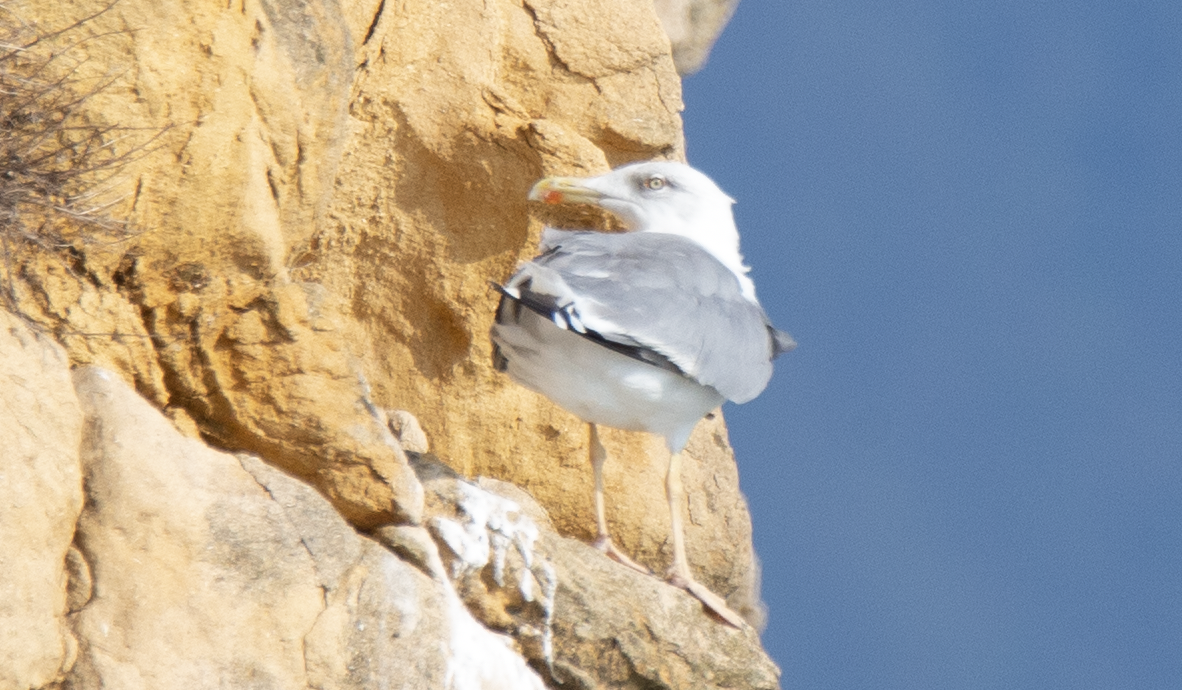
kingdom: Animalia
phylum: Chordata
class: Aves
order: Charadriiformes
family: Laridae
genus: Larus
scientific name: Larus michahellis
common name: Yellow-legged gull
